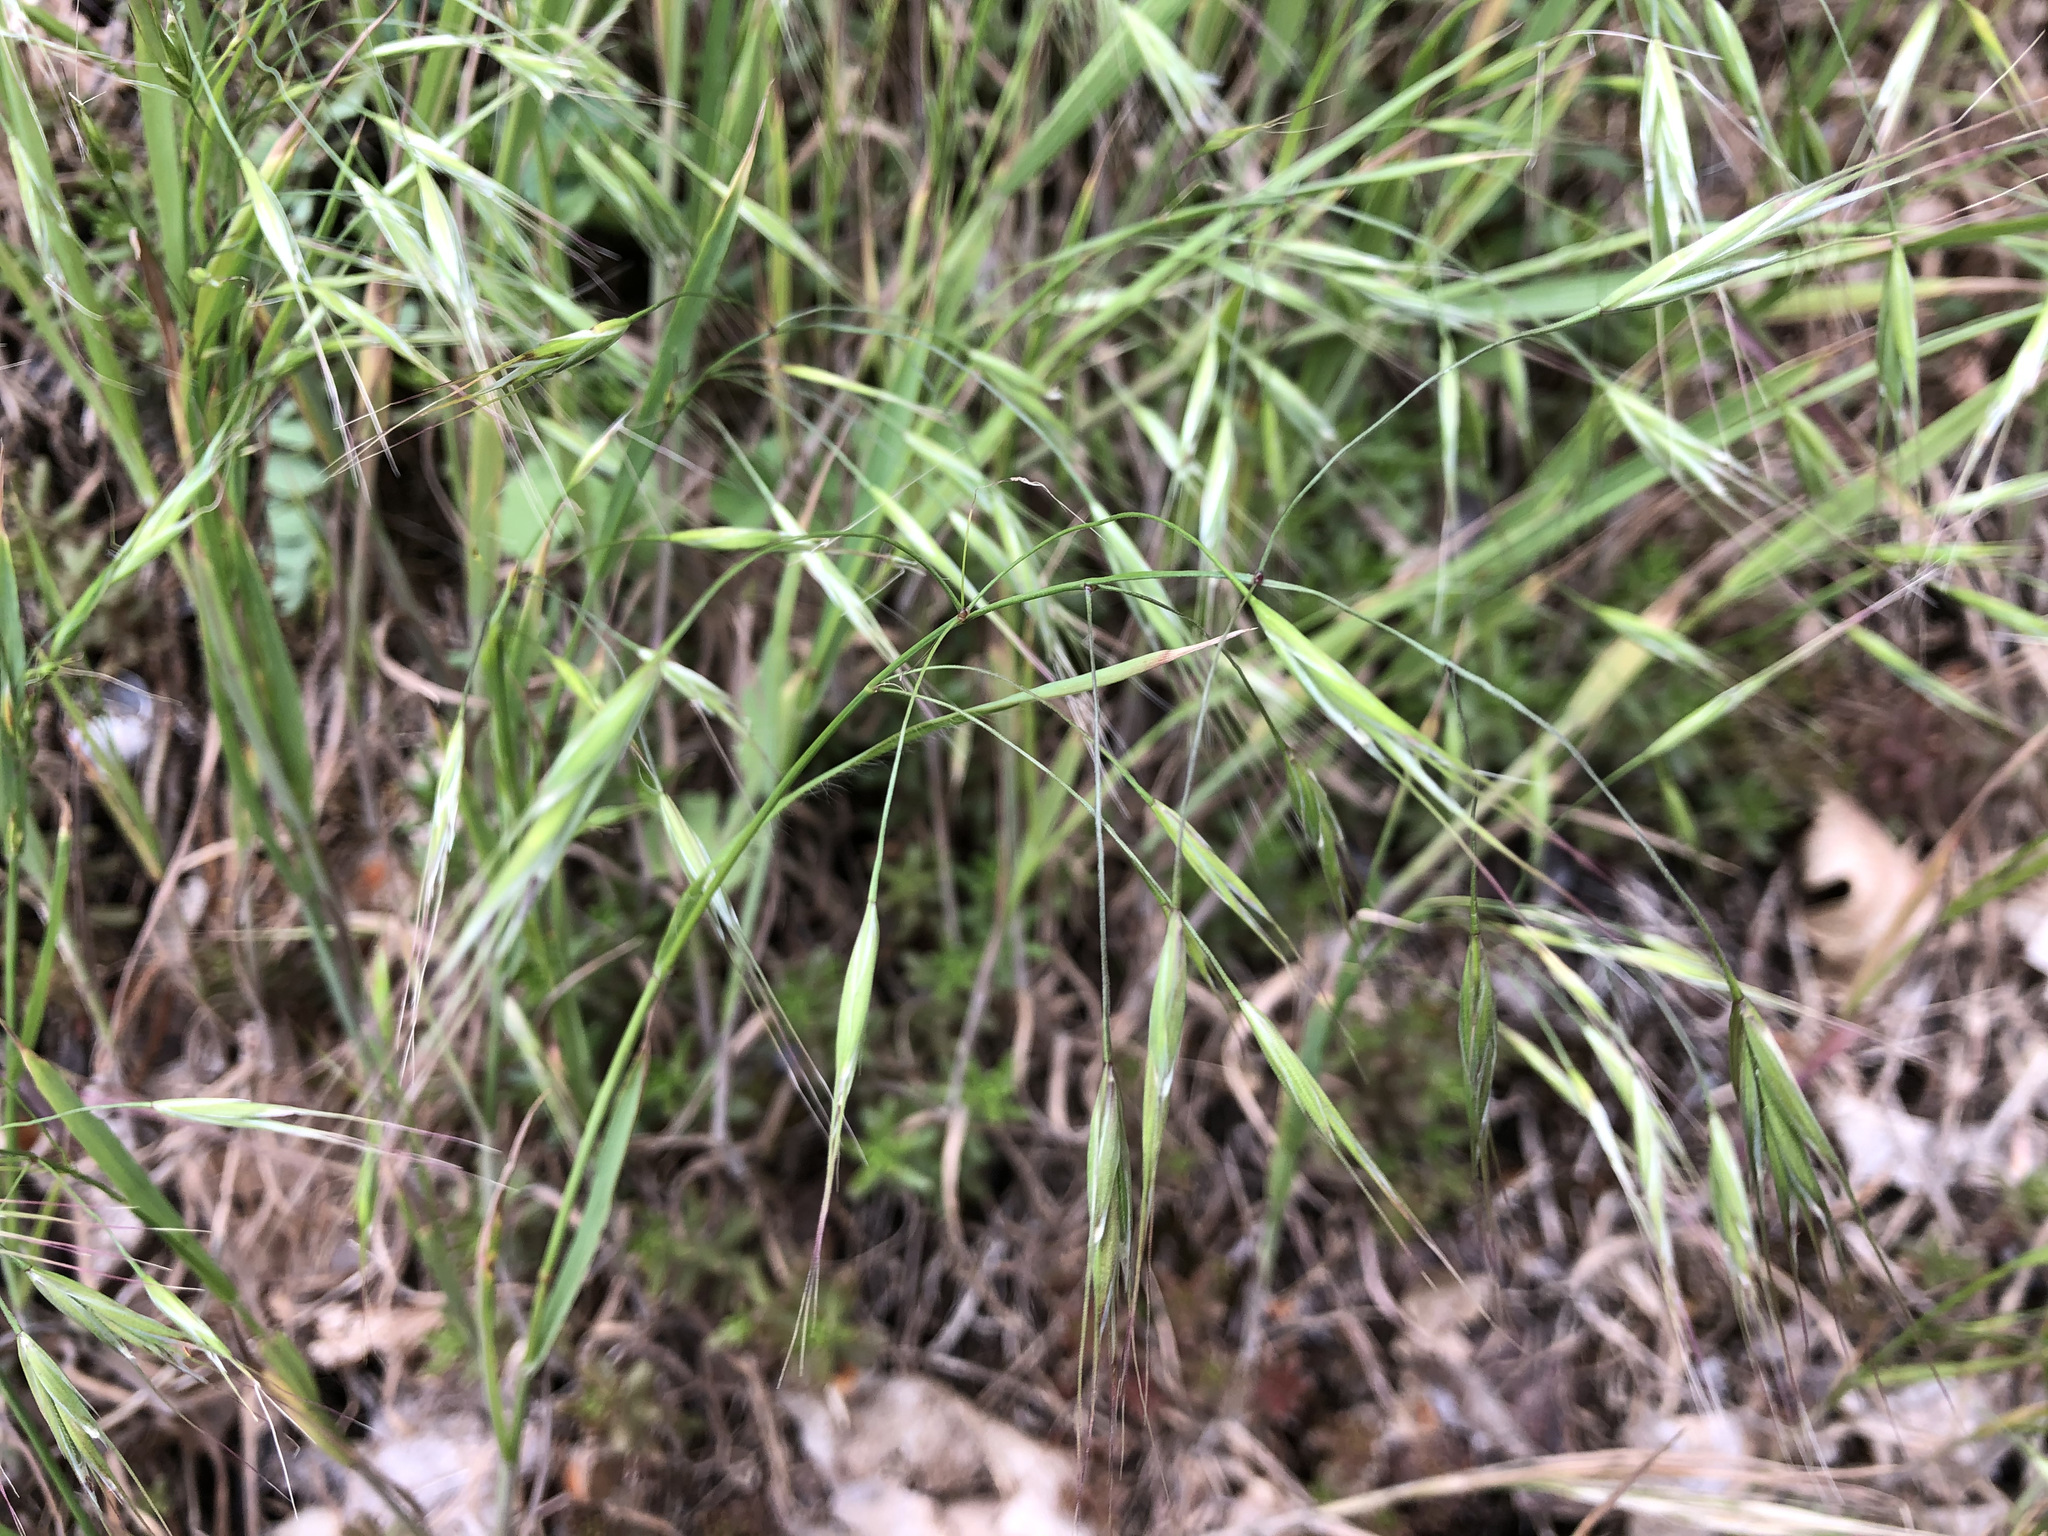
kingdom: Plantae
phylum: Tracheophyta
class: Liliopsida
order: Poales
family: Poaceae
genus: Bromus
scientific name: Bromus sterilis
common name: Poverty brome
